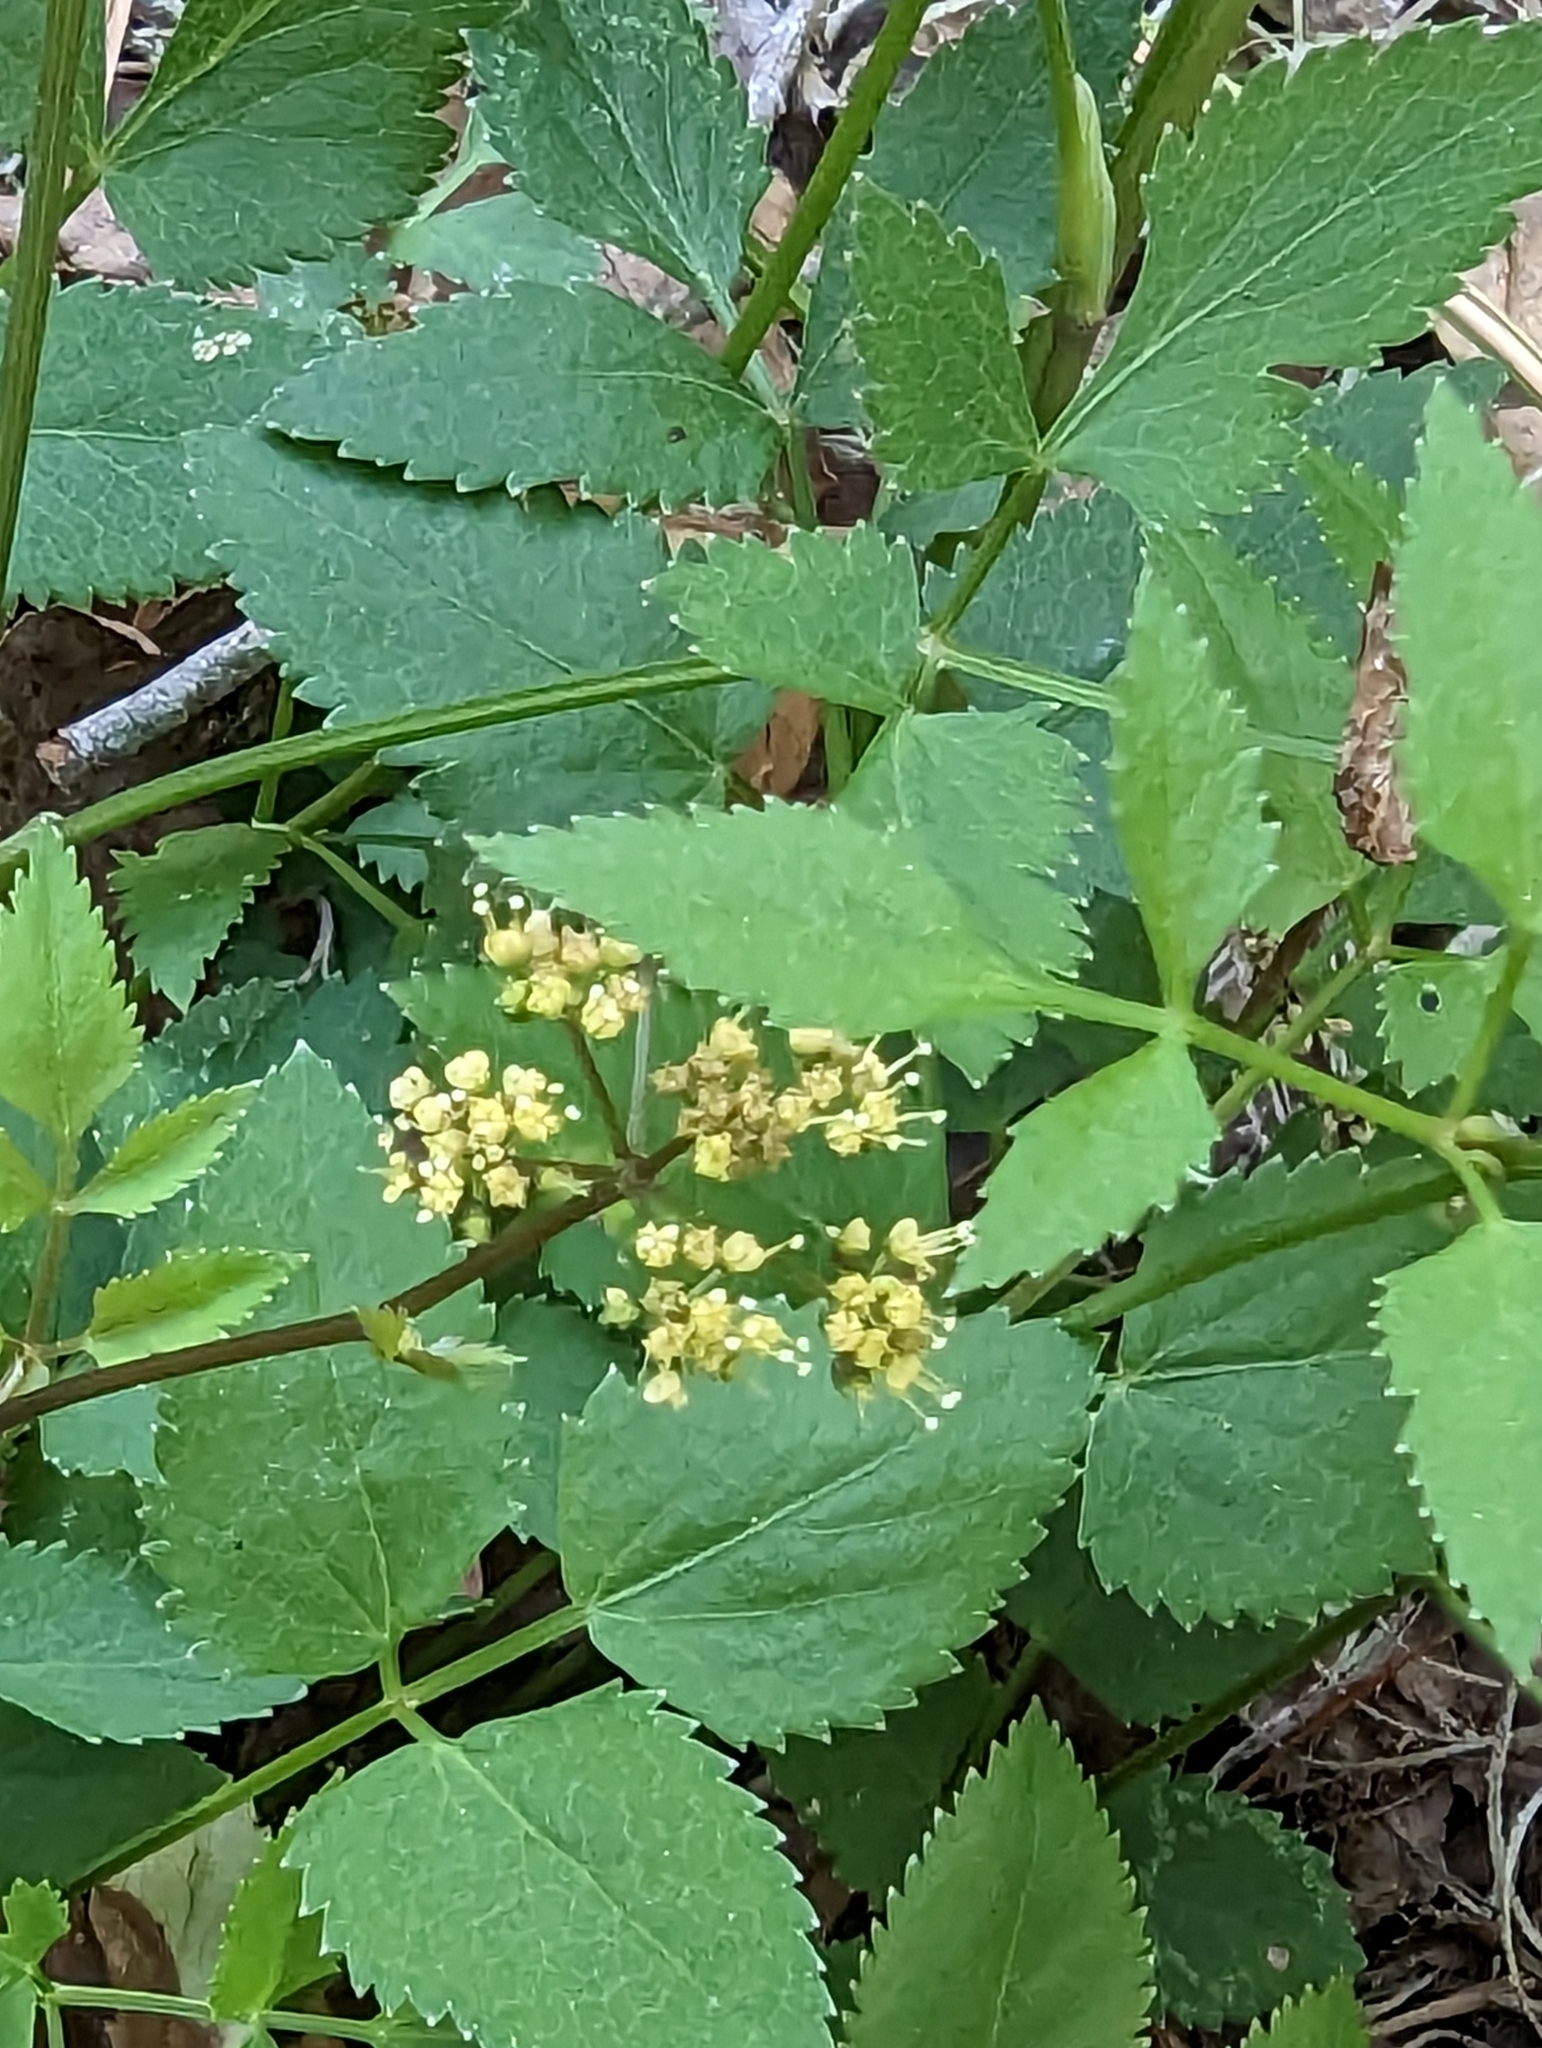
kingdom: Plantae
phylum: Tracheophyta
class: Magnoliopsida
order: Apiales
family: Apiaceae
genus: Zizia
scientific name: Zizia aurea
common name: Golden alexanders
